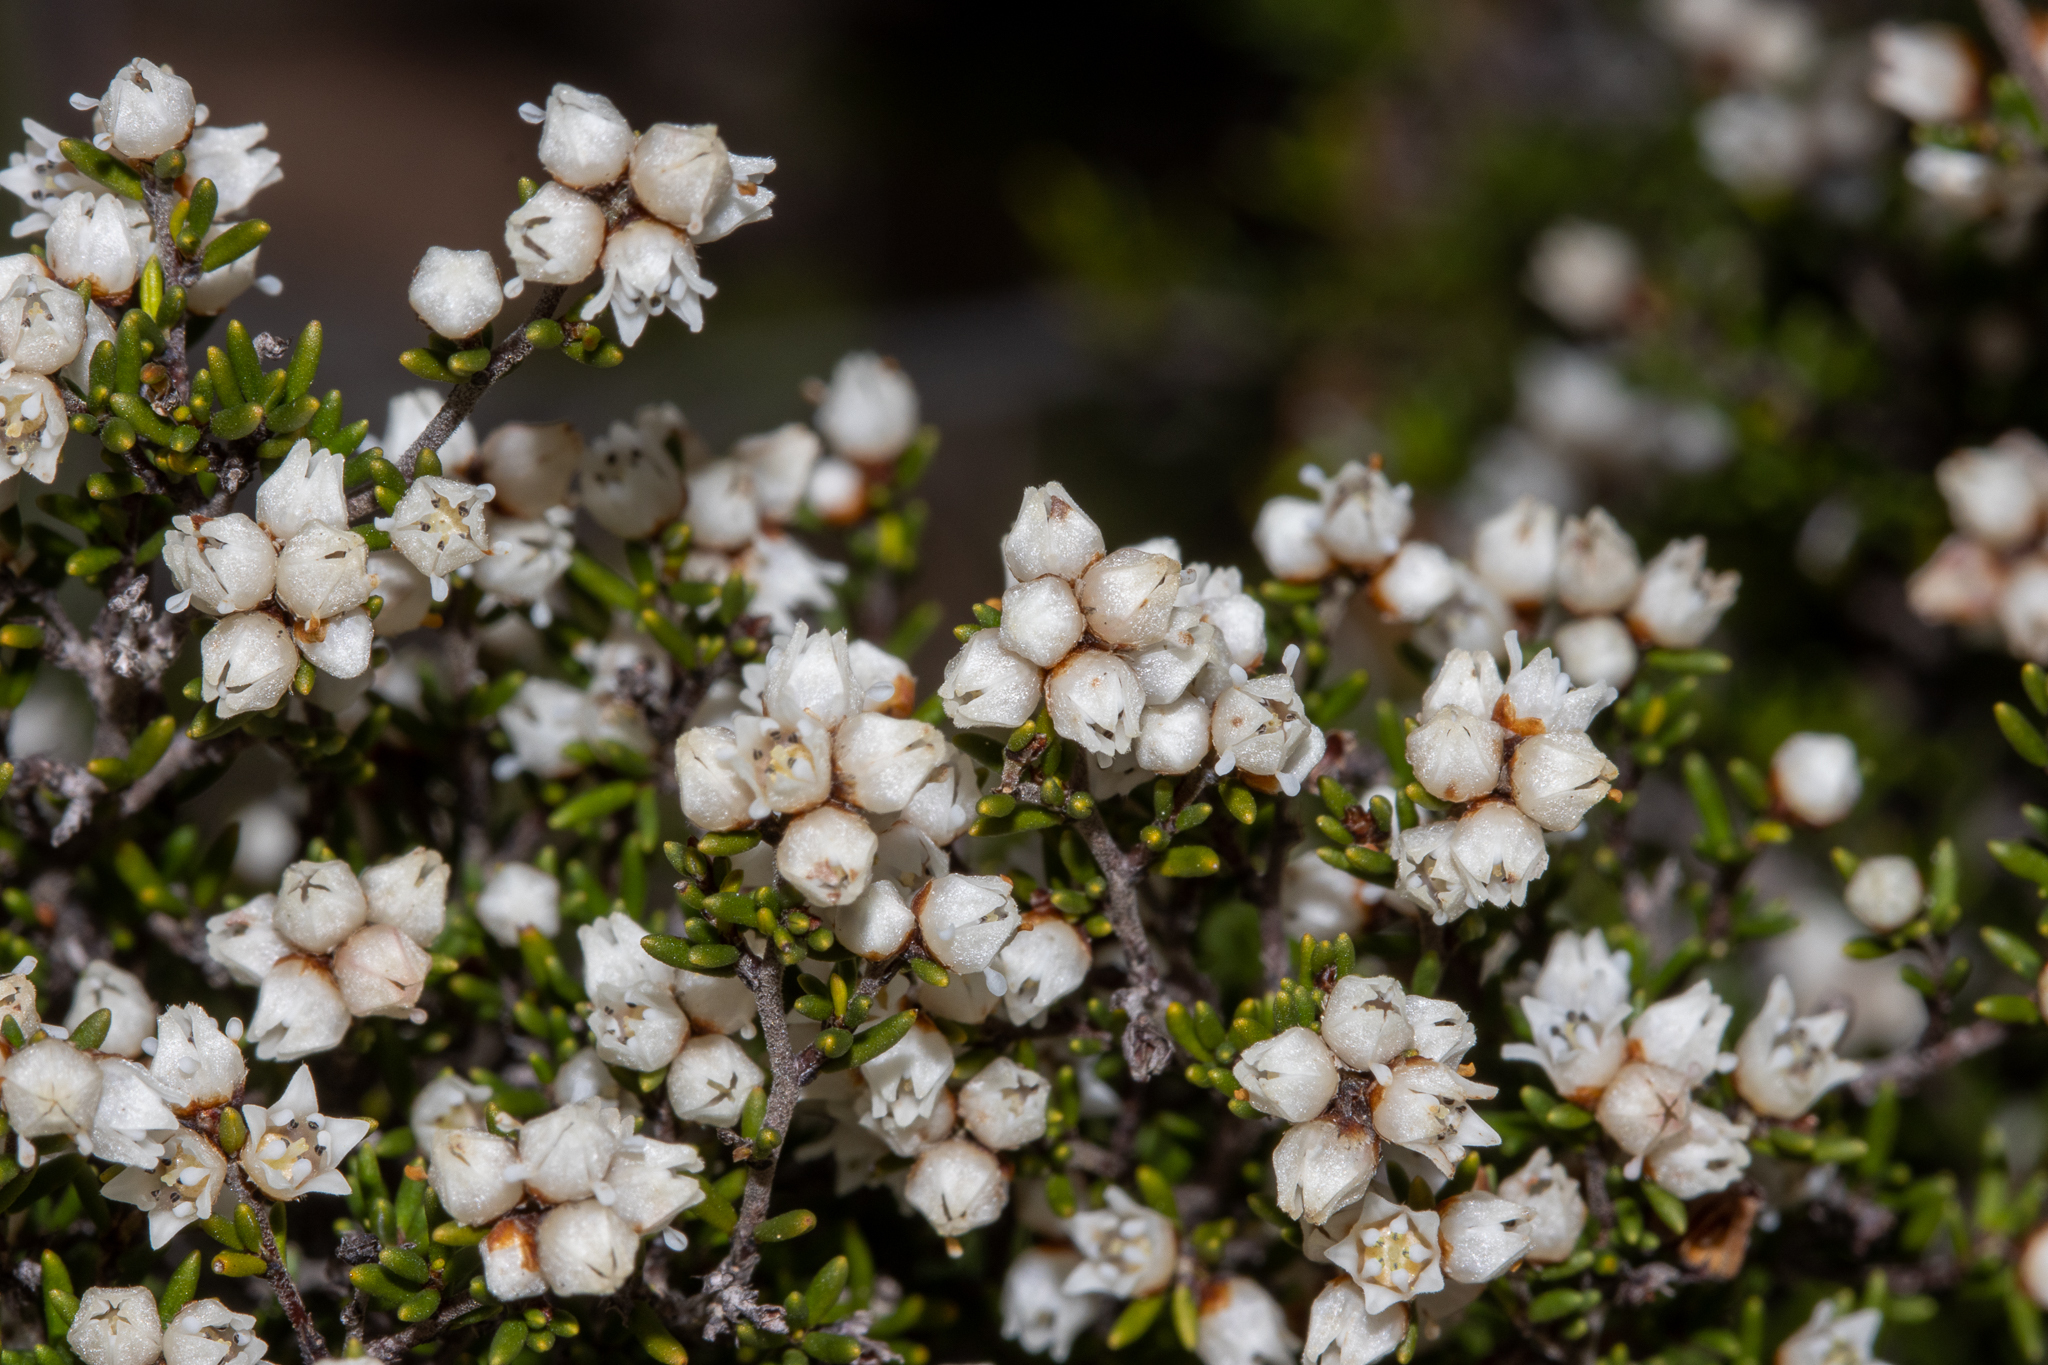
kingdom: Plantae
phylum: Tracheophyta
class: Magnoliopsida
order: Rosales
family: Rhamnaceae
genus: Cryptandra
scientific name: Cryptandra tomentosa
